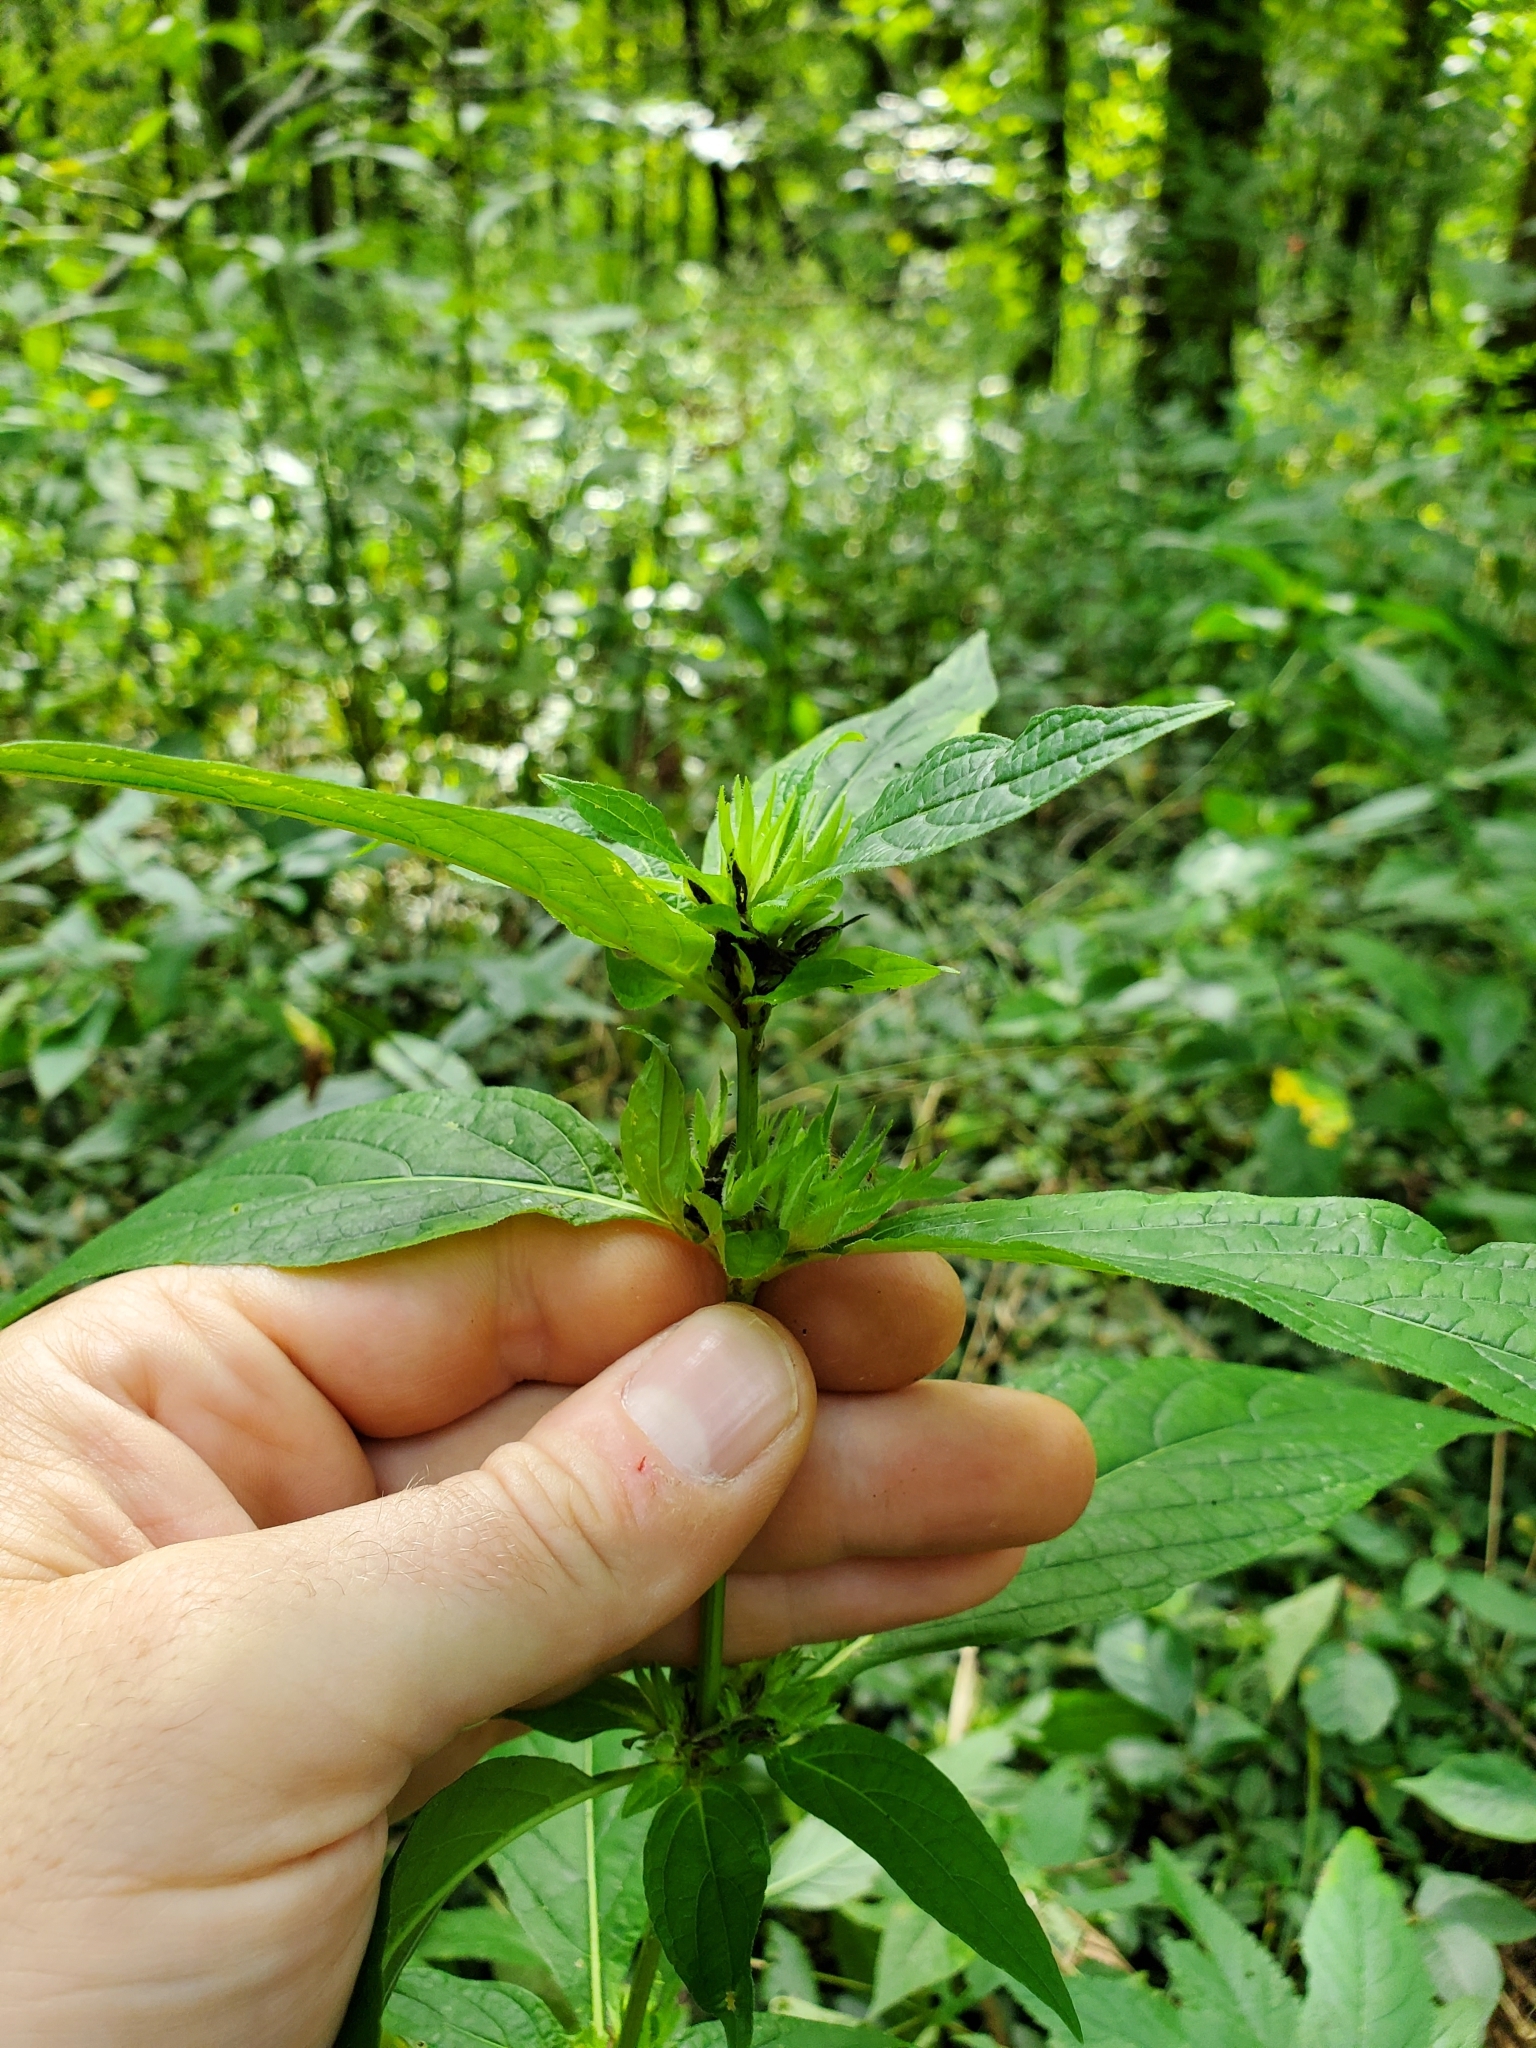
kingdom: Plantae
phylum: Tracheophyta
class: Magnoliopsida
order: Lamiales
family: Acanthaceae
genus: Ruellia
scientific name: Ruellia strepens
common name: Limestone wild petunia
